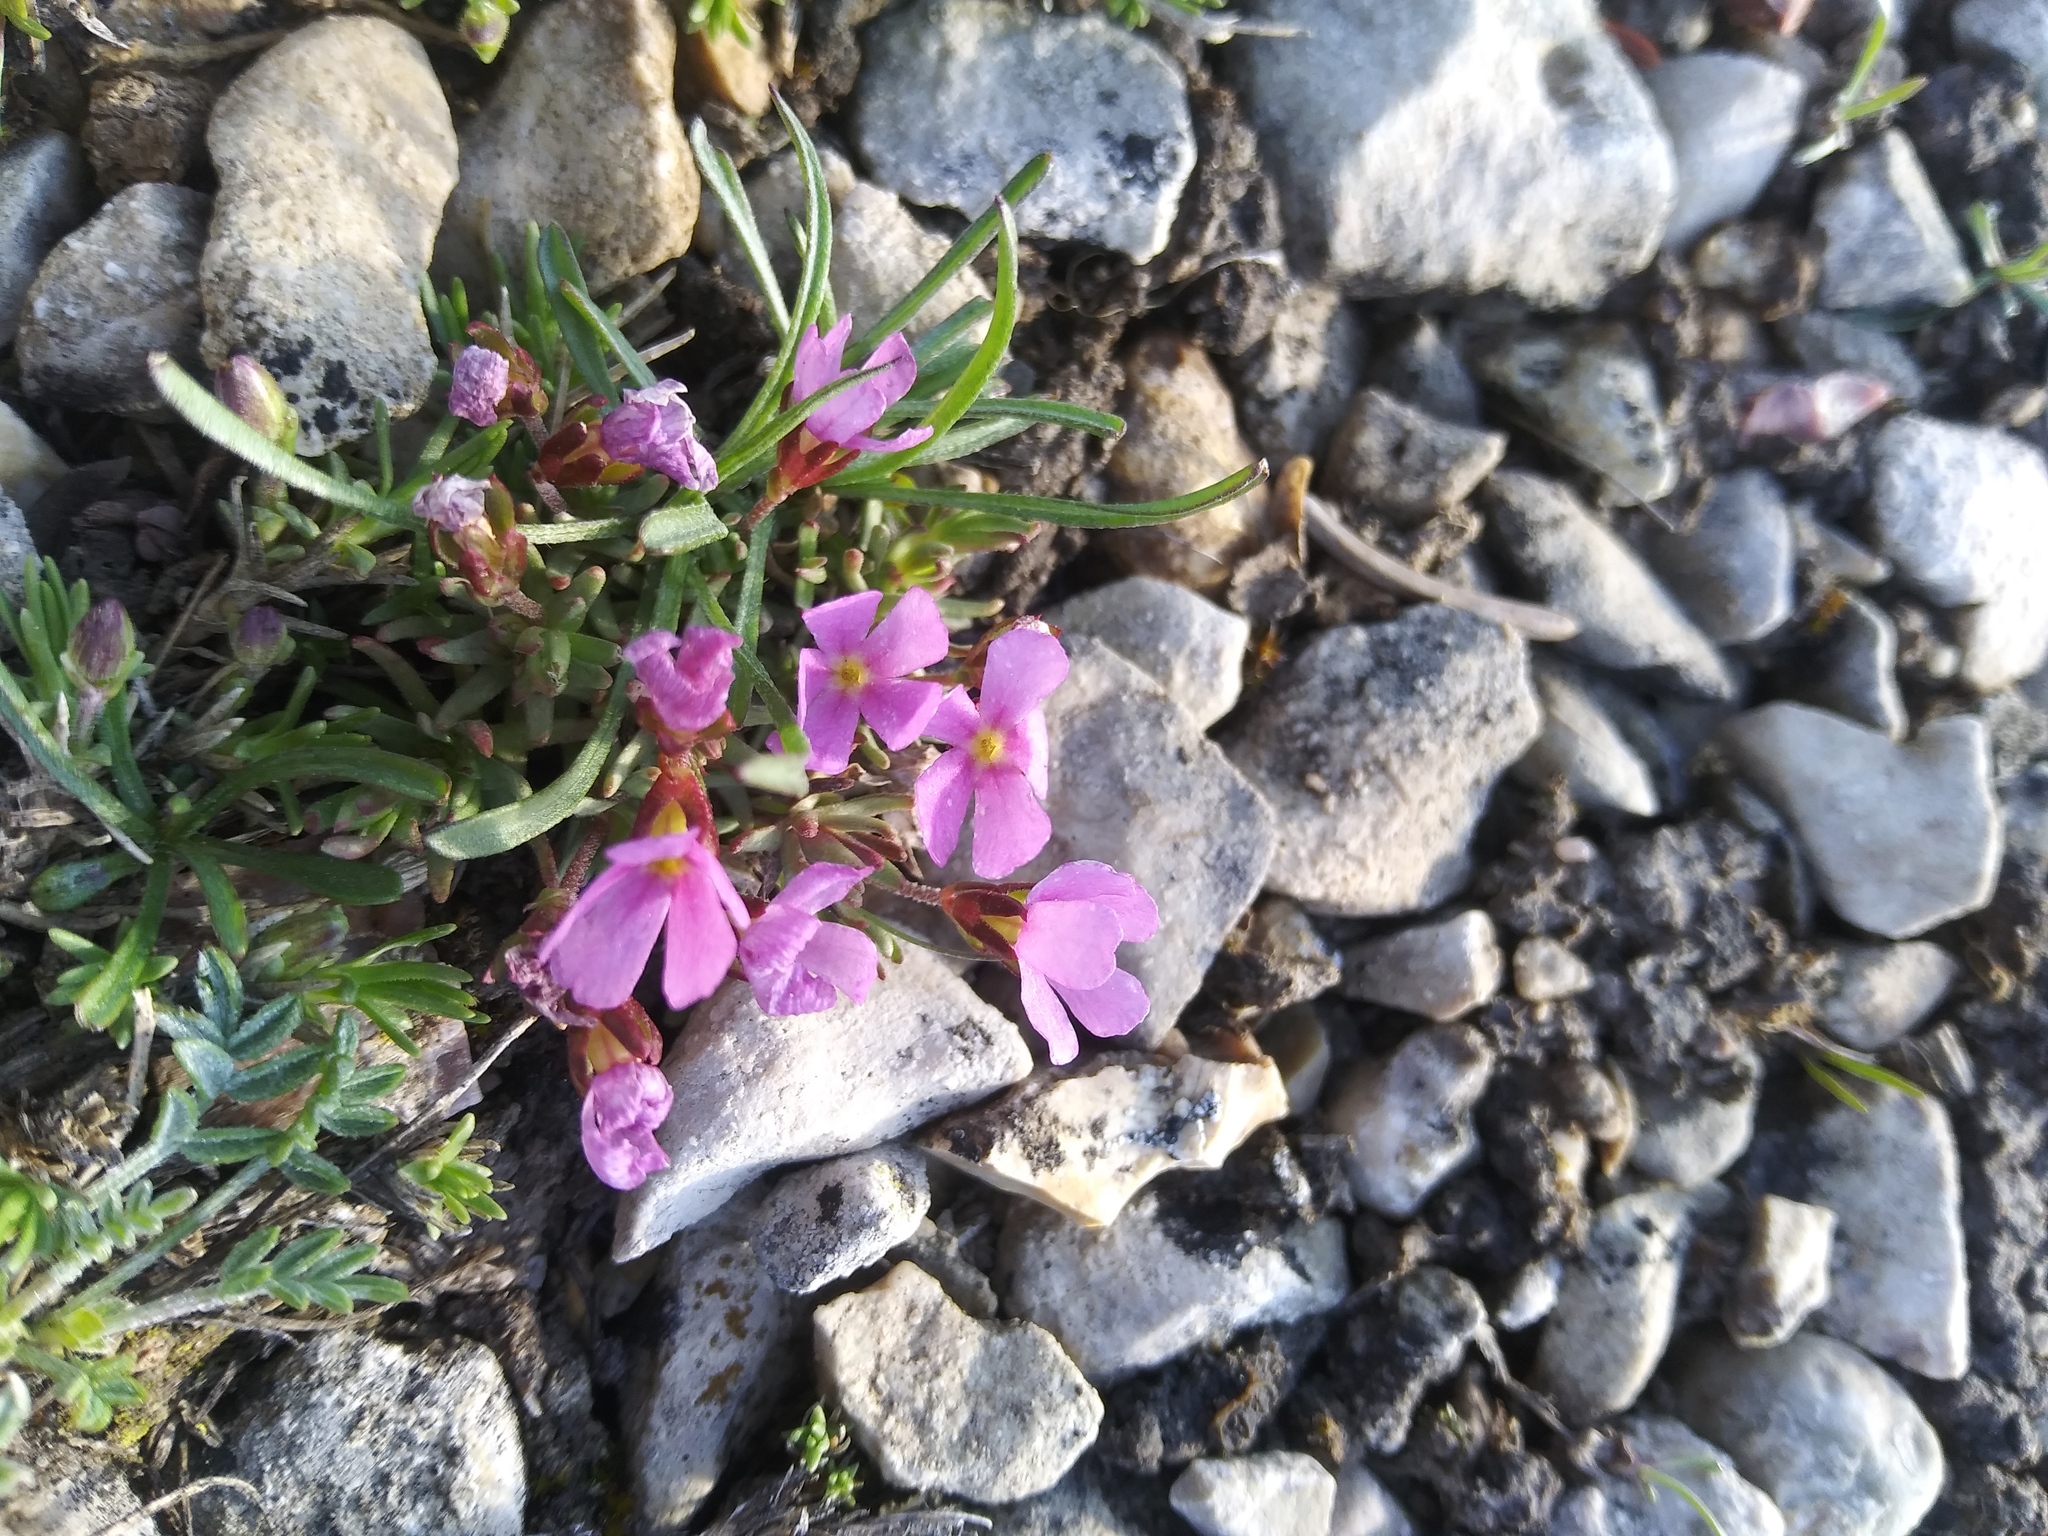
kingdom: Plantae
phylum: Tracheophyta
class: Magnoliopsida
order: Ericales
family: Primulaceae
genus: Androsace
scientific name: Androsace montana
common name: Rocky mountain dwarf-primrose
